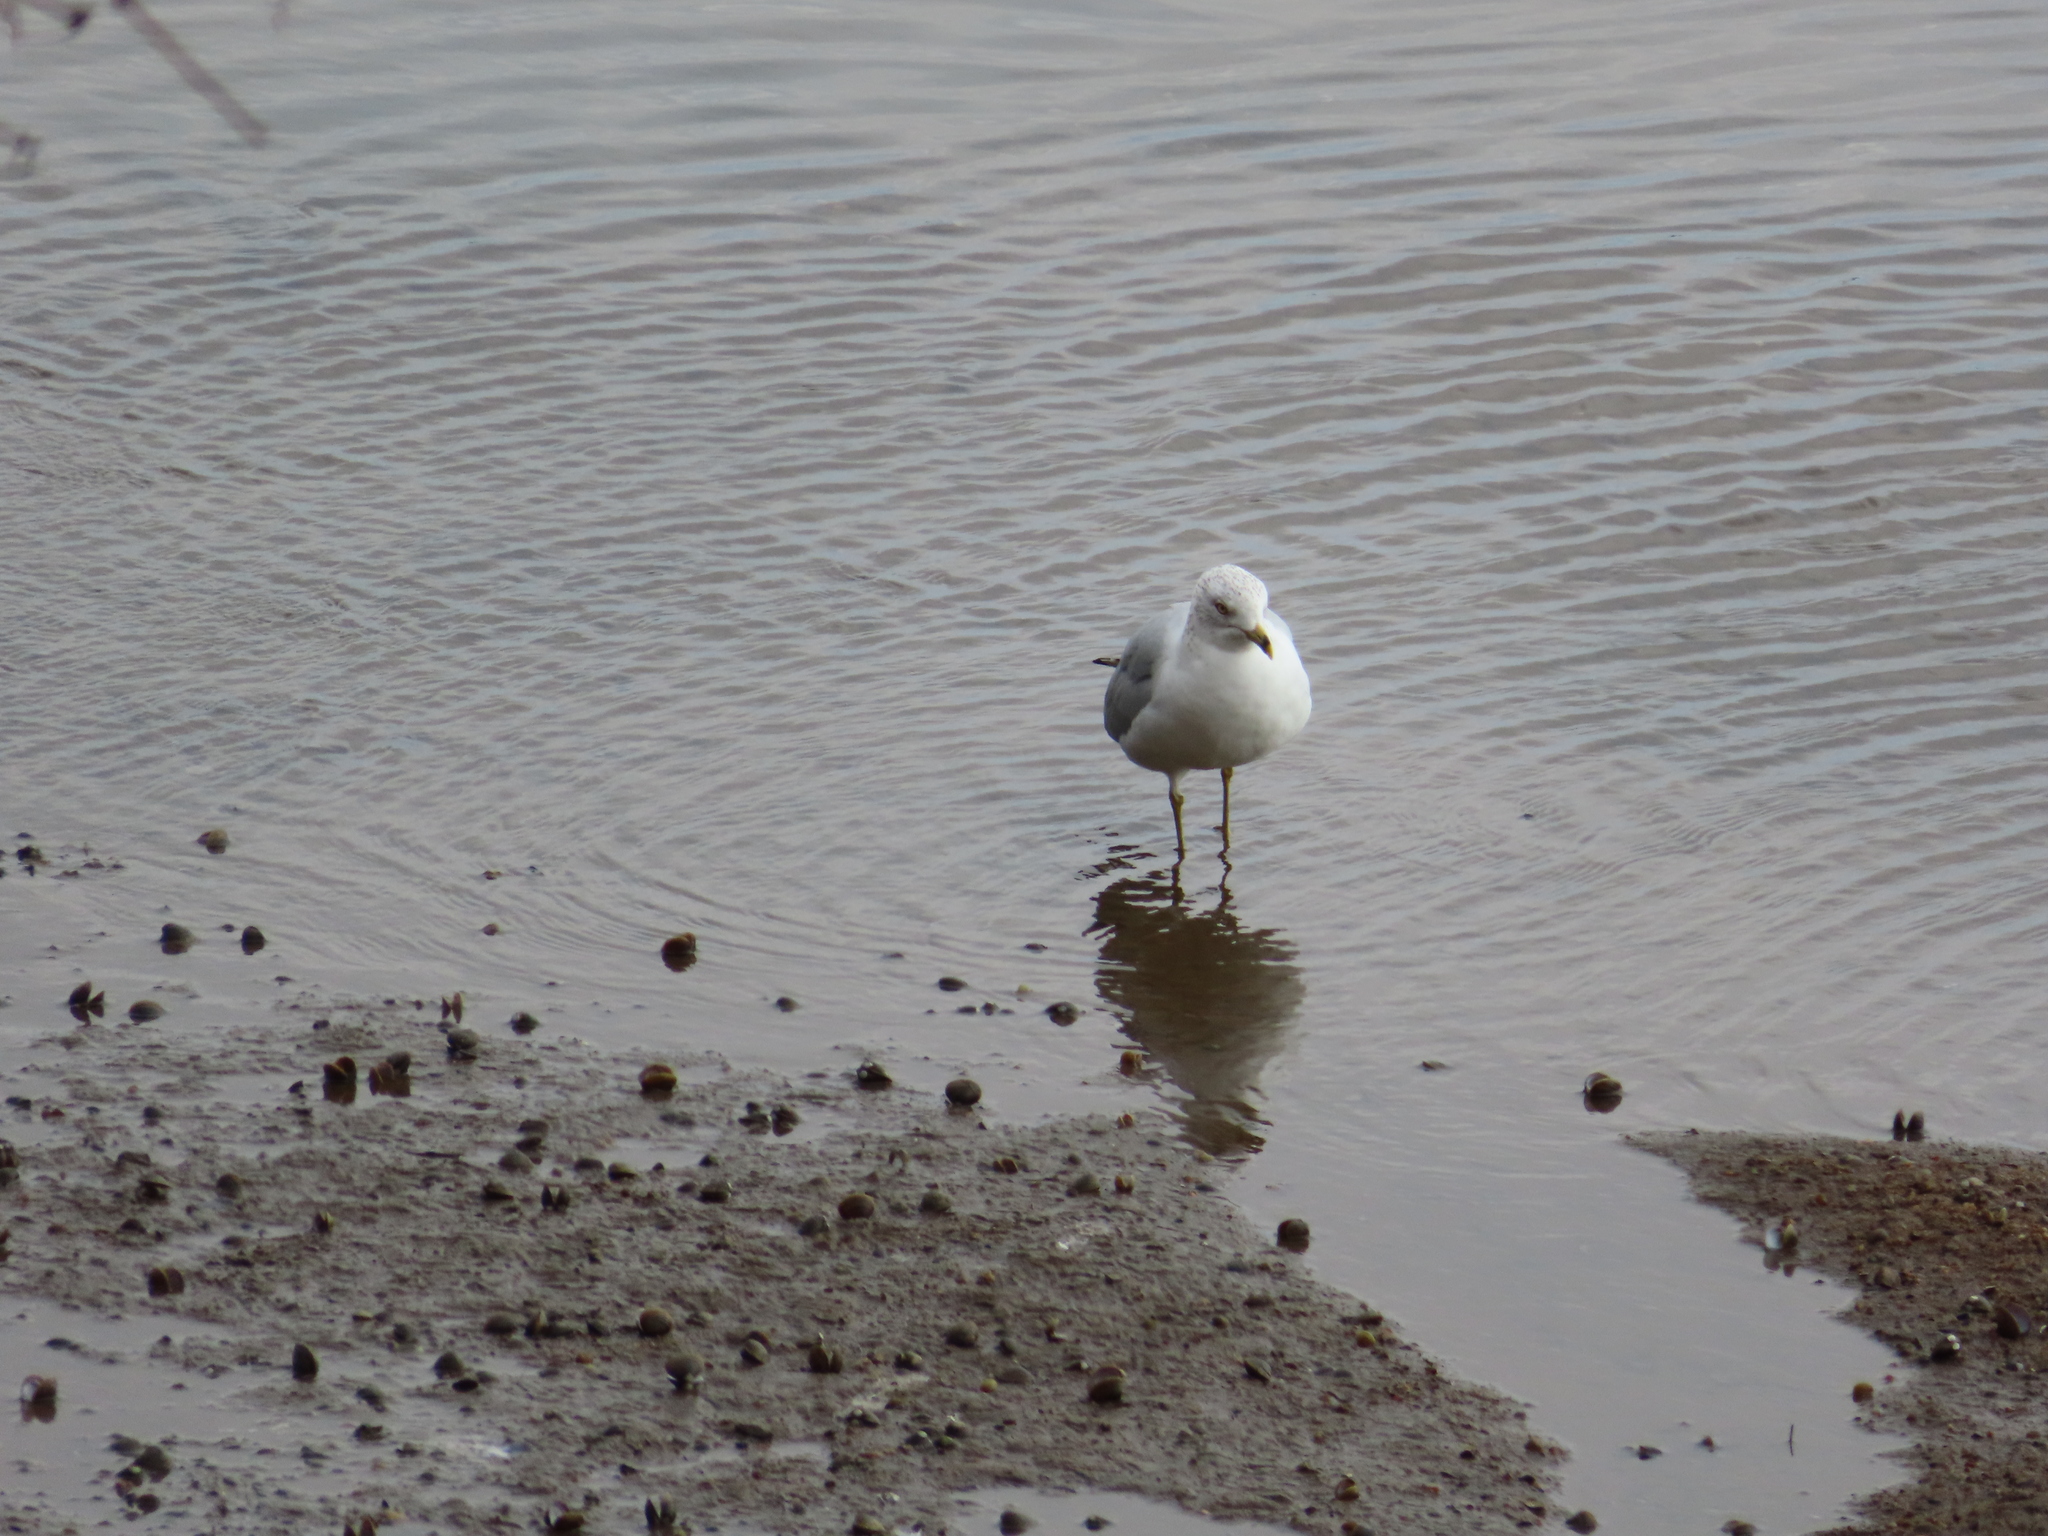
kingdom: Animalia
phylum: Chordata
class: Aves
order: Charadriiformes
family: Laridae
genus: Larus
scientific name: Larus delawarensis
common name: Ring-billed gull
